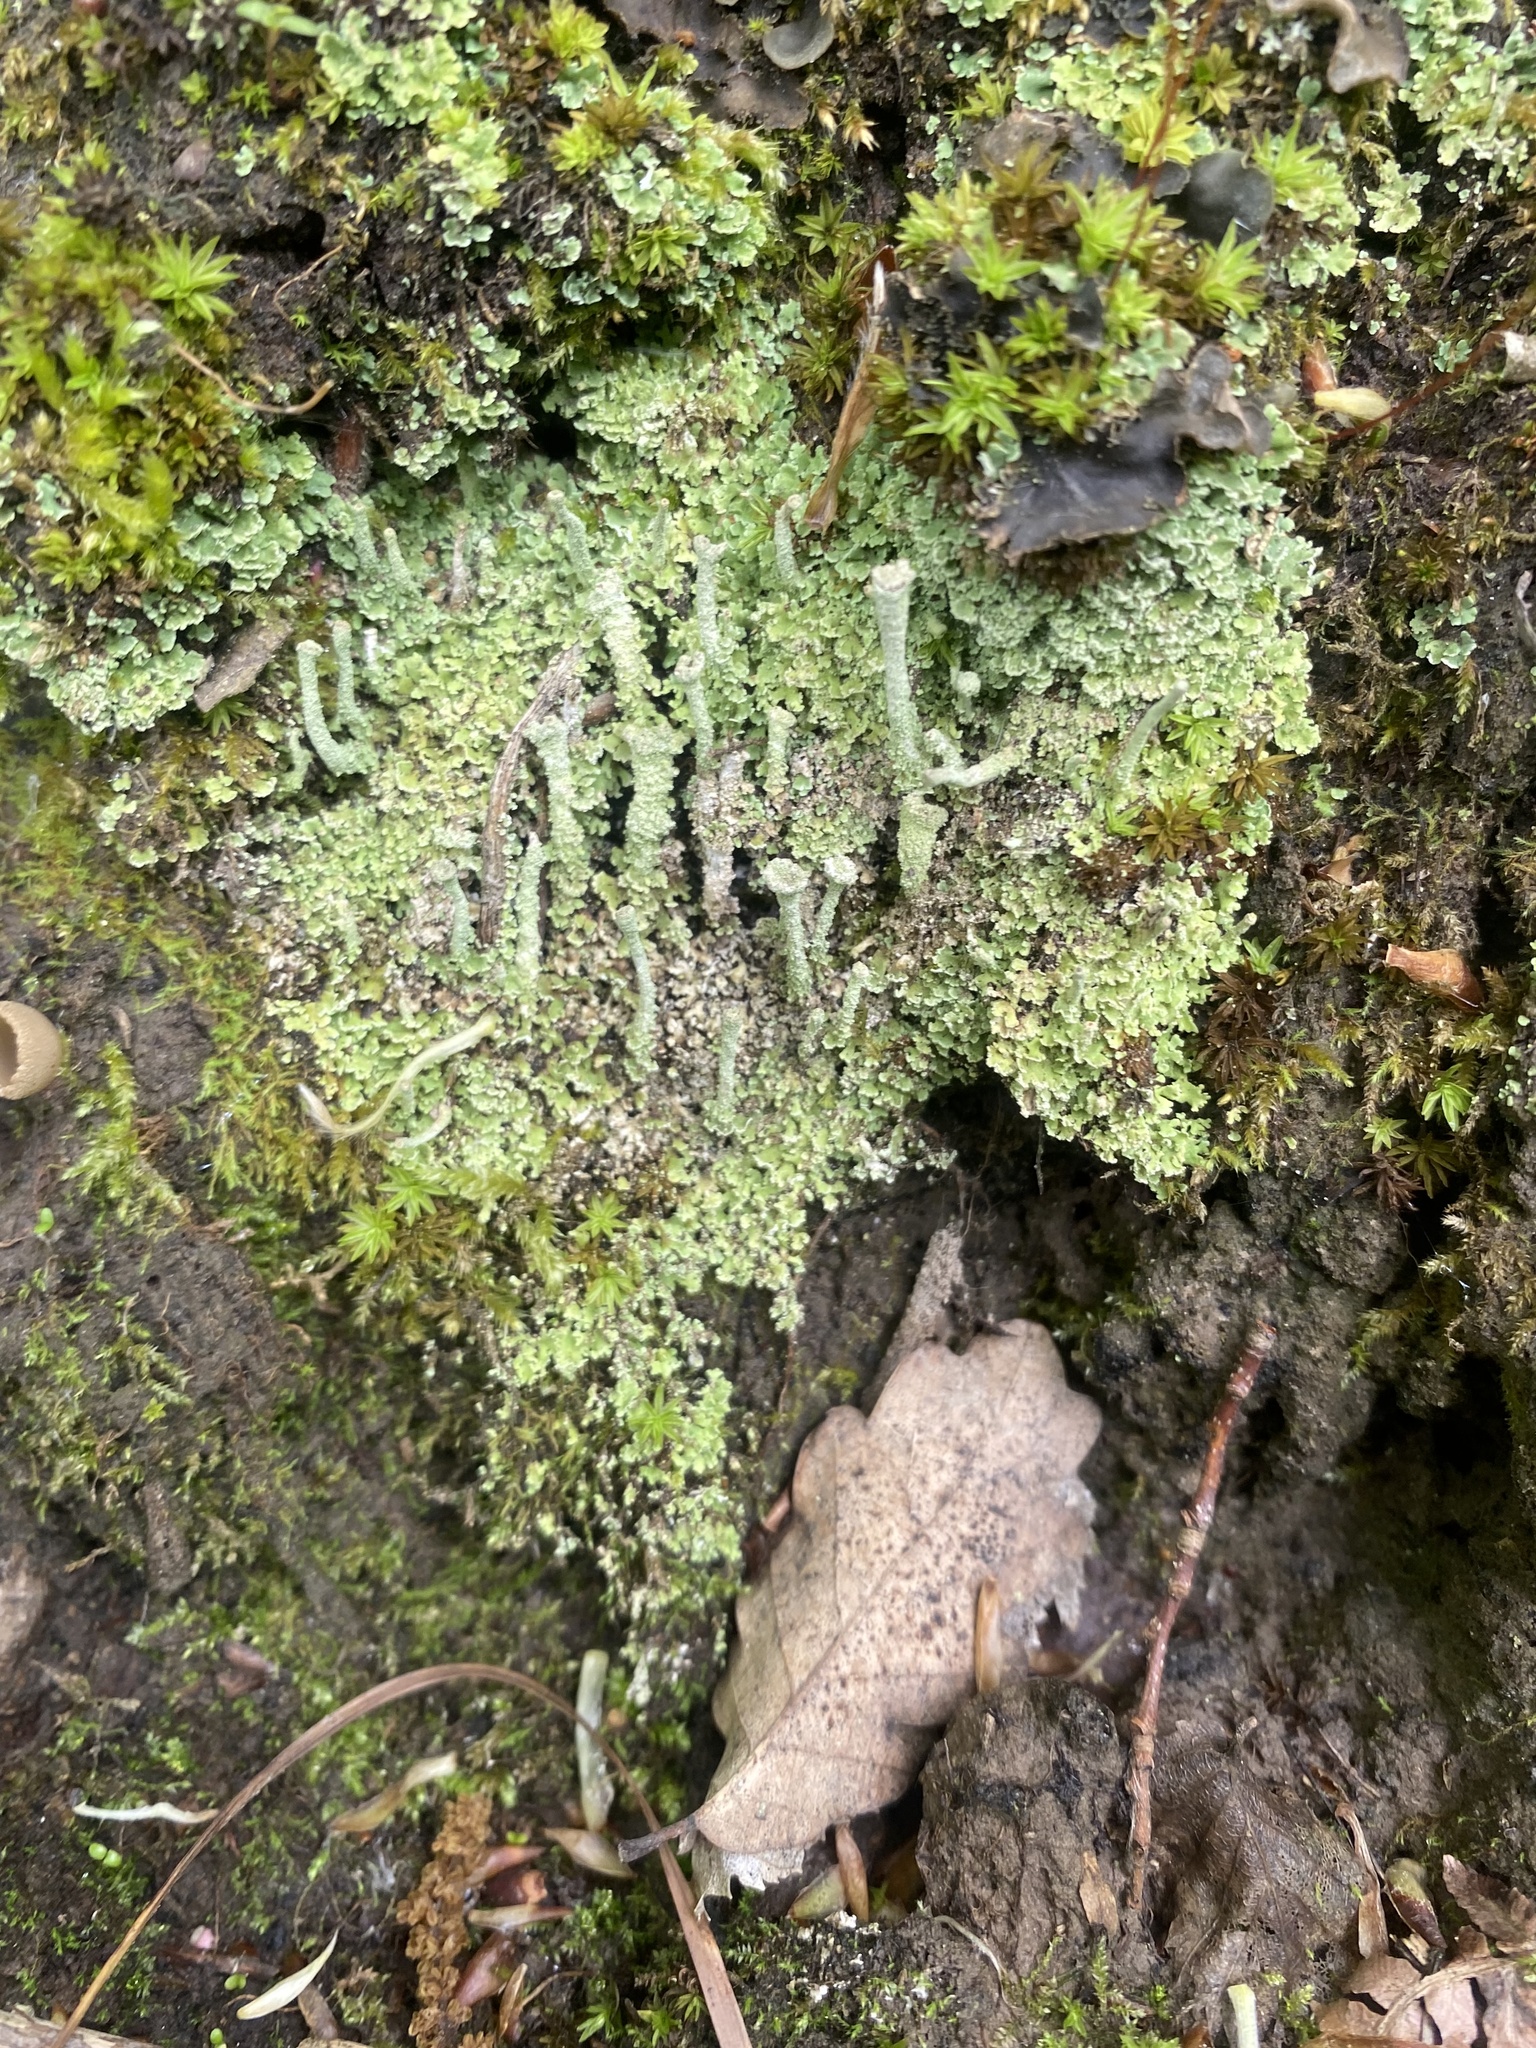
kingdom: Fungi
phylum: Ascomycota
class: Lecanoromycetes
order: Lecanorales
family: Cladoniaceae
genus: Cladonia
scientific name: Cladonia fimbriata
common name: Powdered trumpet lichen
